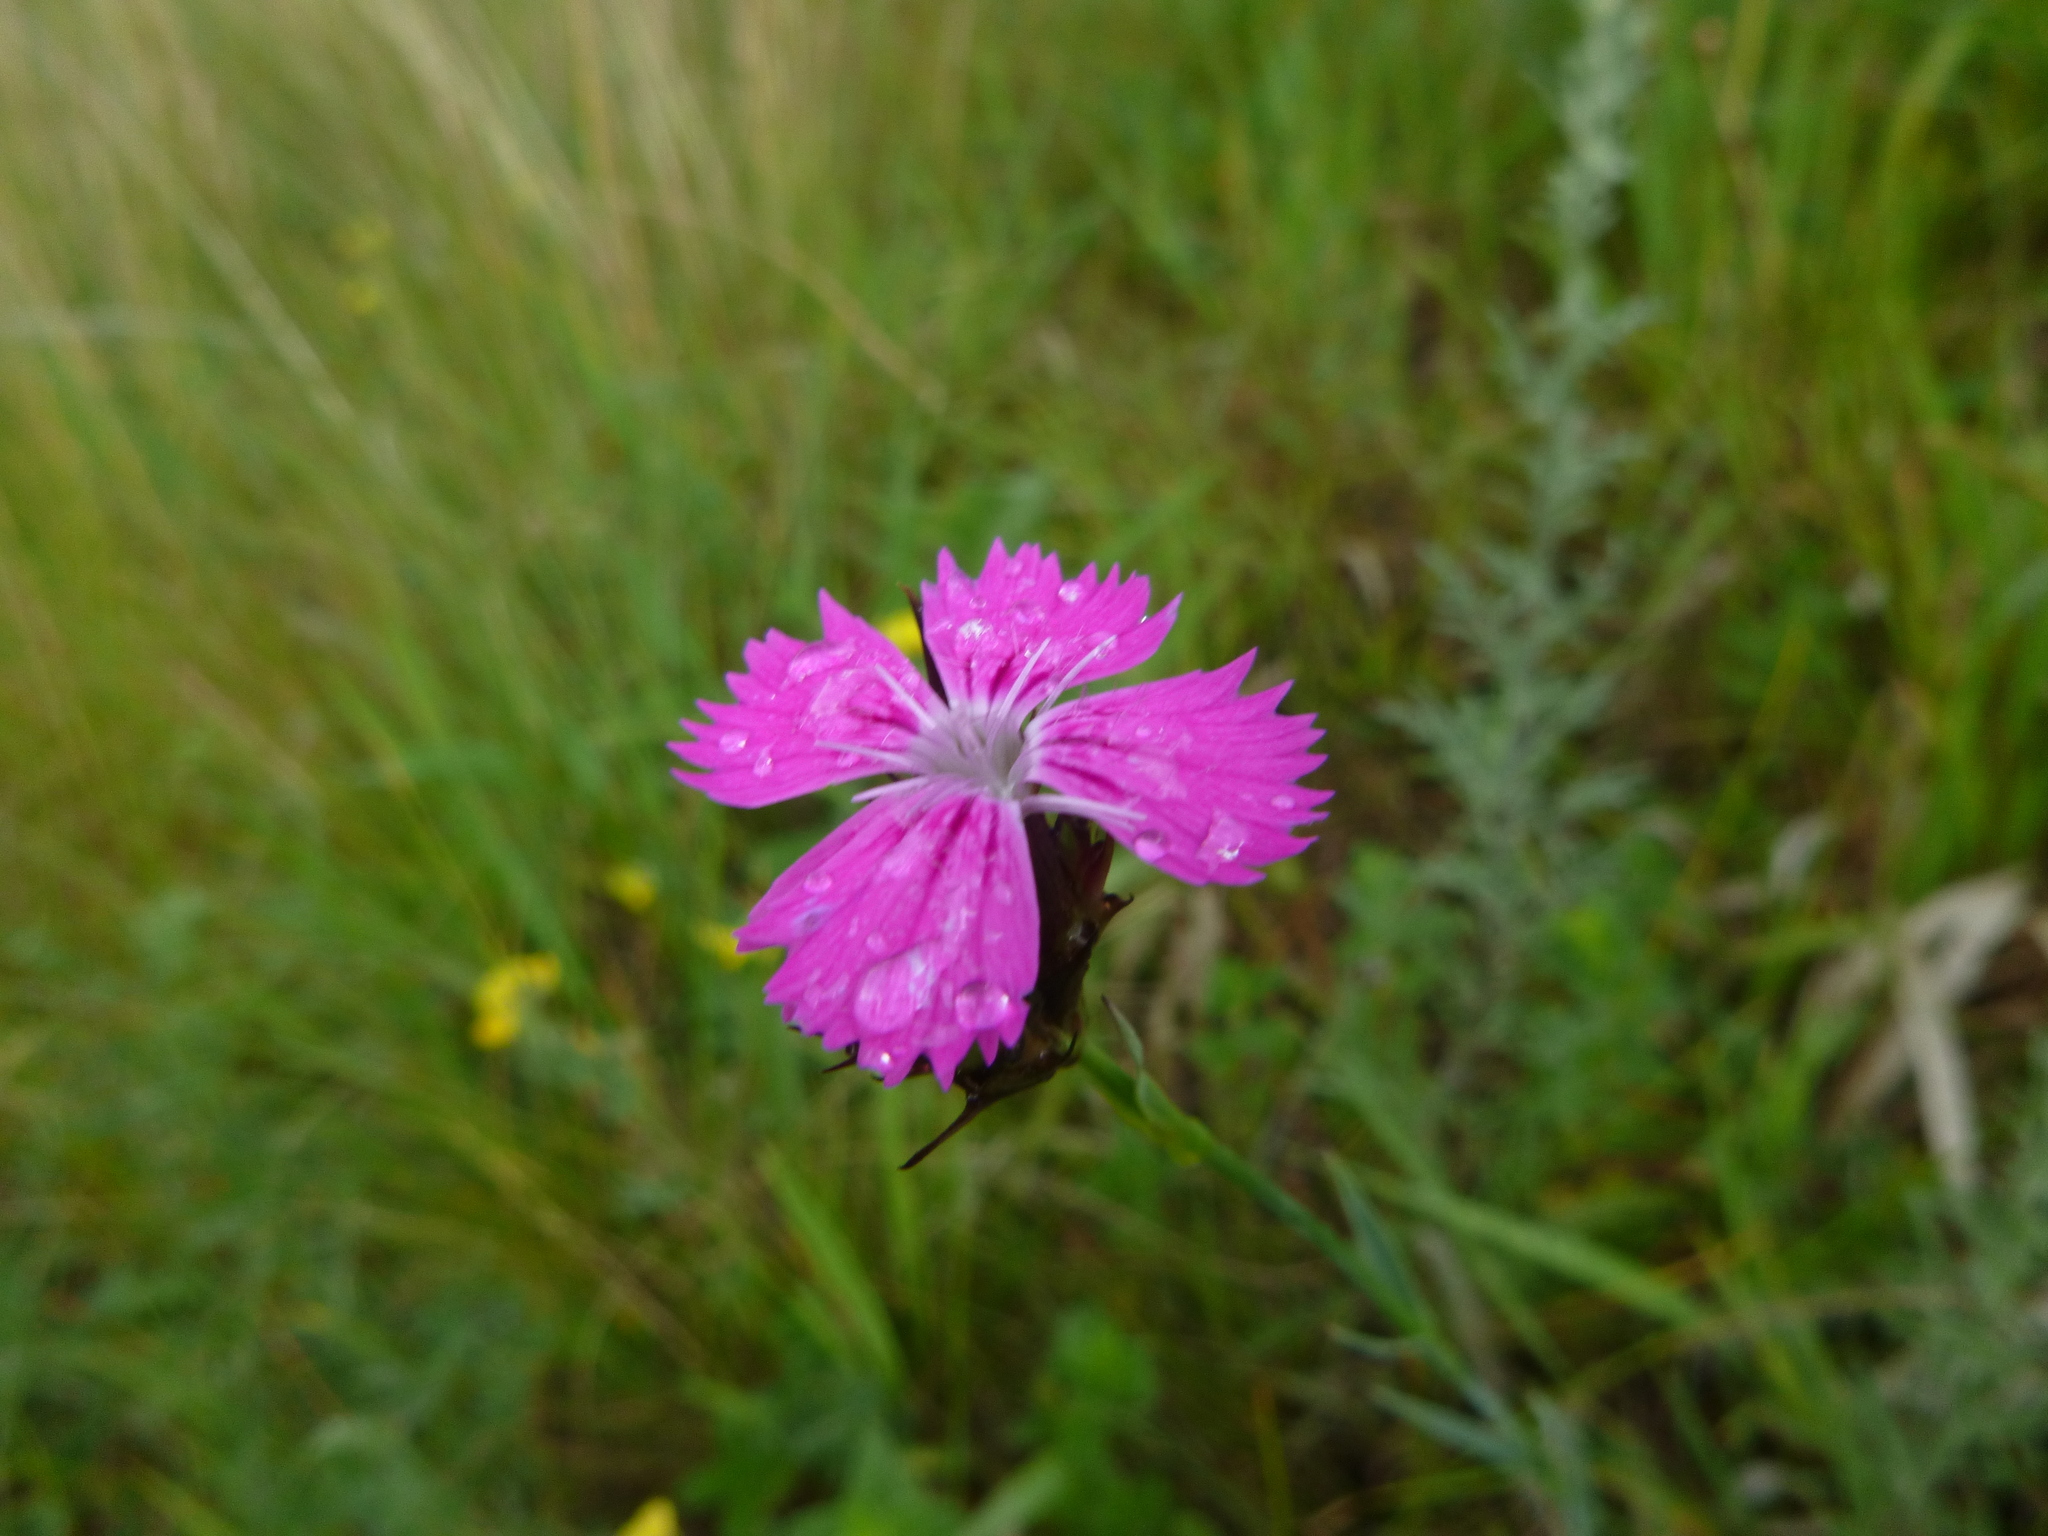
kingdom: Plantae
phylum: Tracheophyta
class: Magnoliopsida
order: Caryophyllales
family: Caryophyllaceae
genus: Dianthus
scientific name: Dianthus carthusianorum
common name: Carthusian pink
